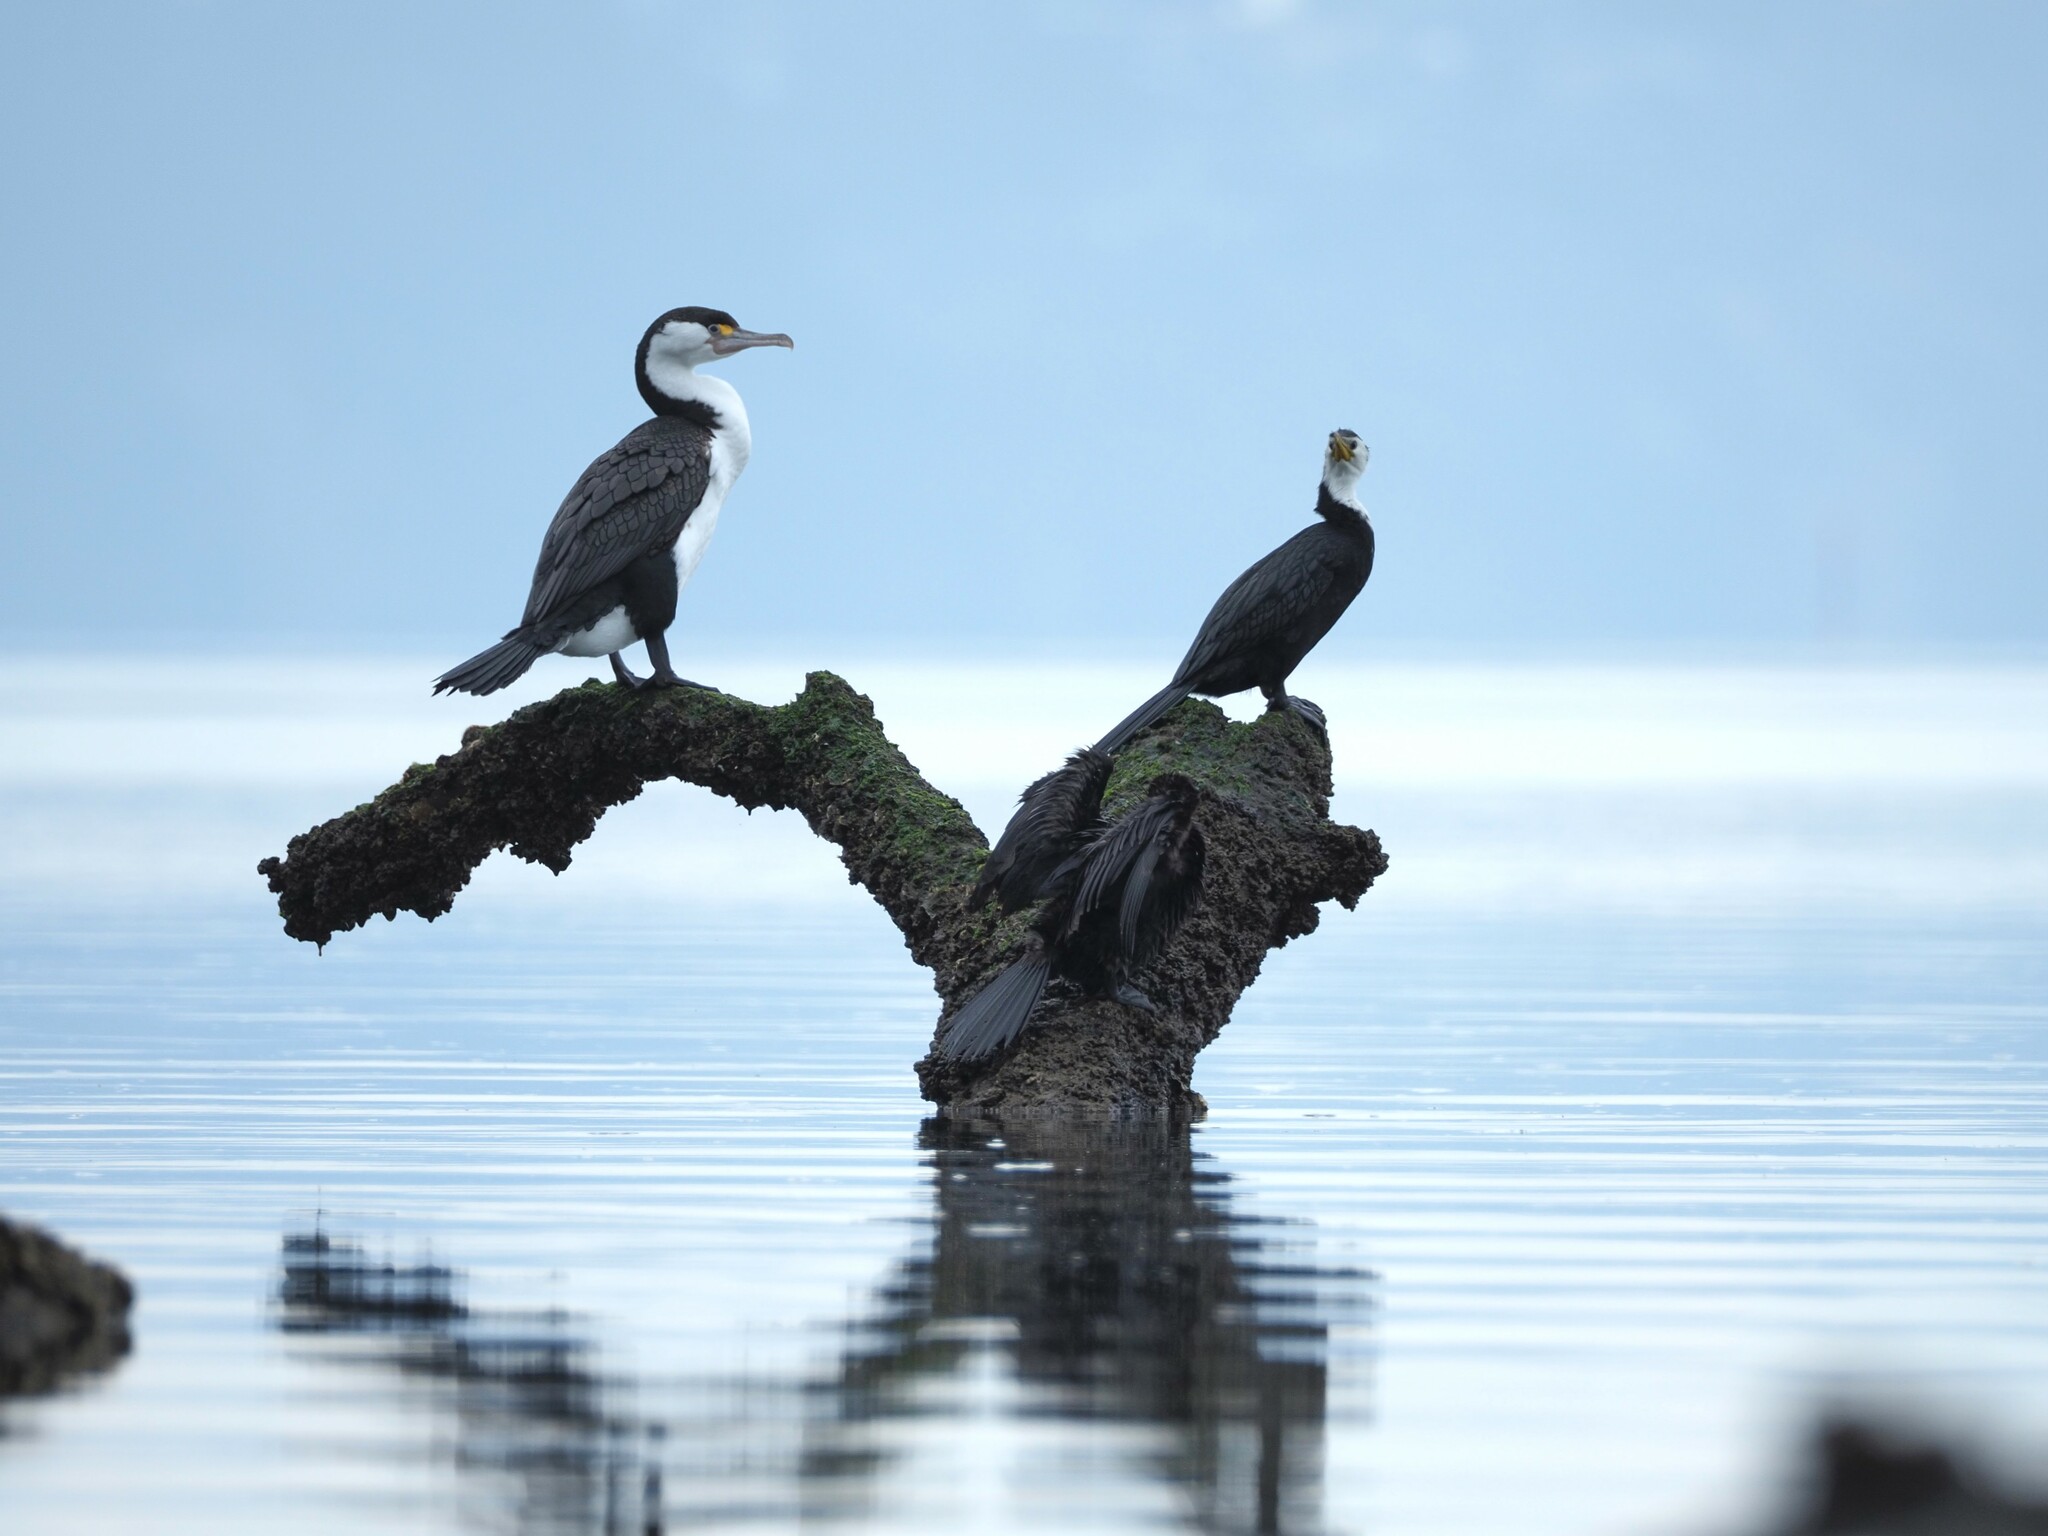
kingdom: Animalia
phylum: Chordata
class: Aves
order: Suliformes
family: Phalacrocoracidae
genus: Phalacrocorax
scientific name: Phalacrocorax varius
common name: Pied cormorant
